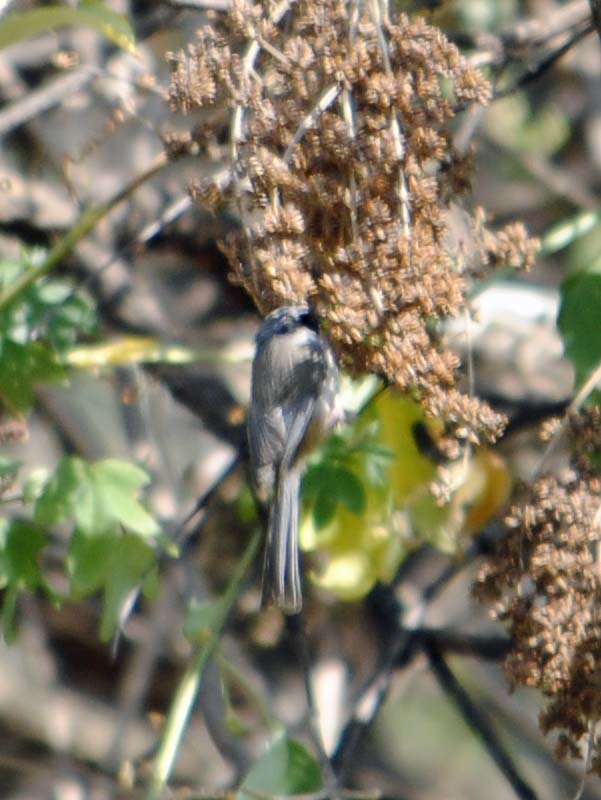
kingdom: Animalia
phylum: Chordata
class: Aves
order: Passeriformes
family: Aegithalidae
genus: Psaltriparus
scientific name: Psaltriparus minimus
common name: American bushtit
